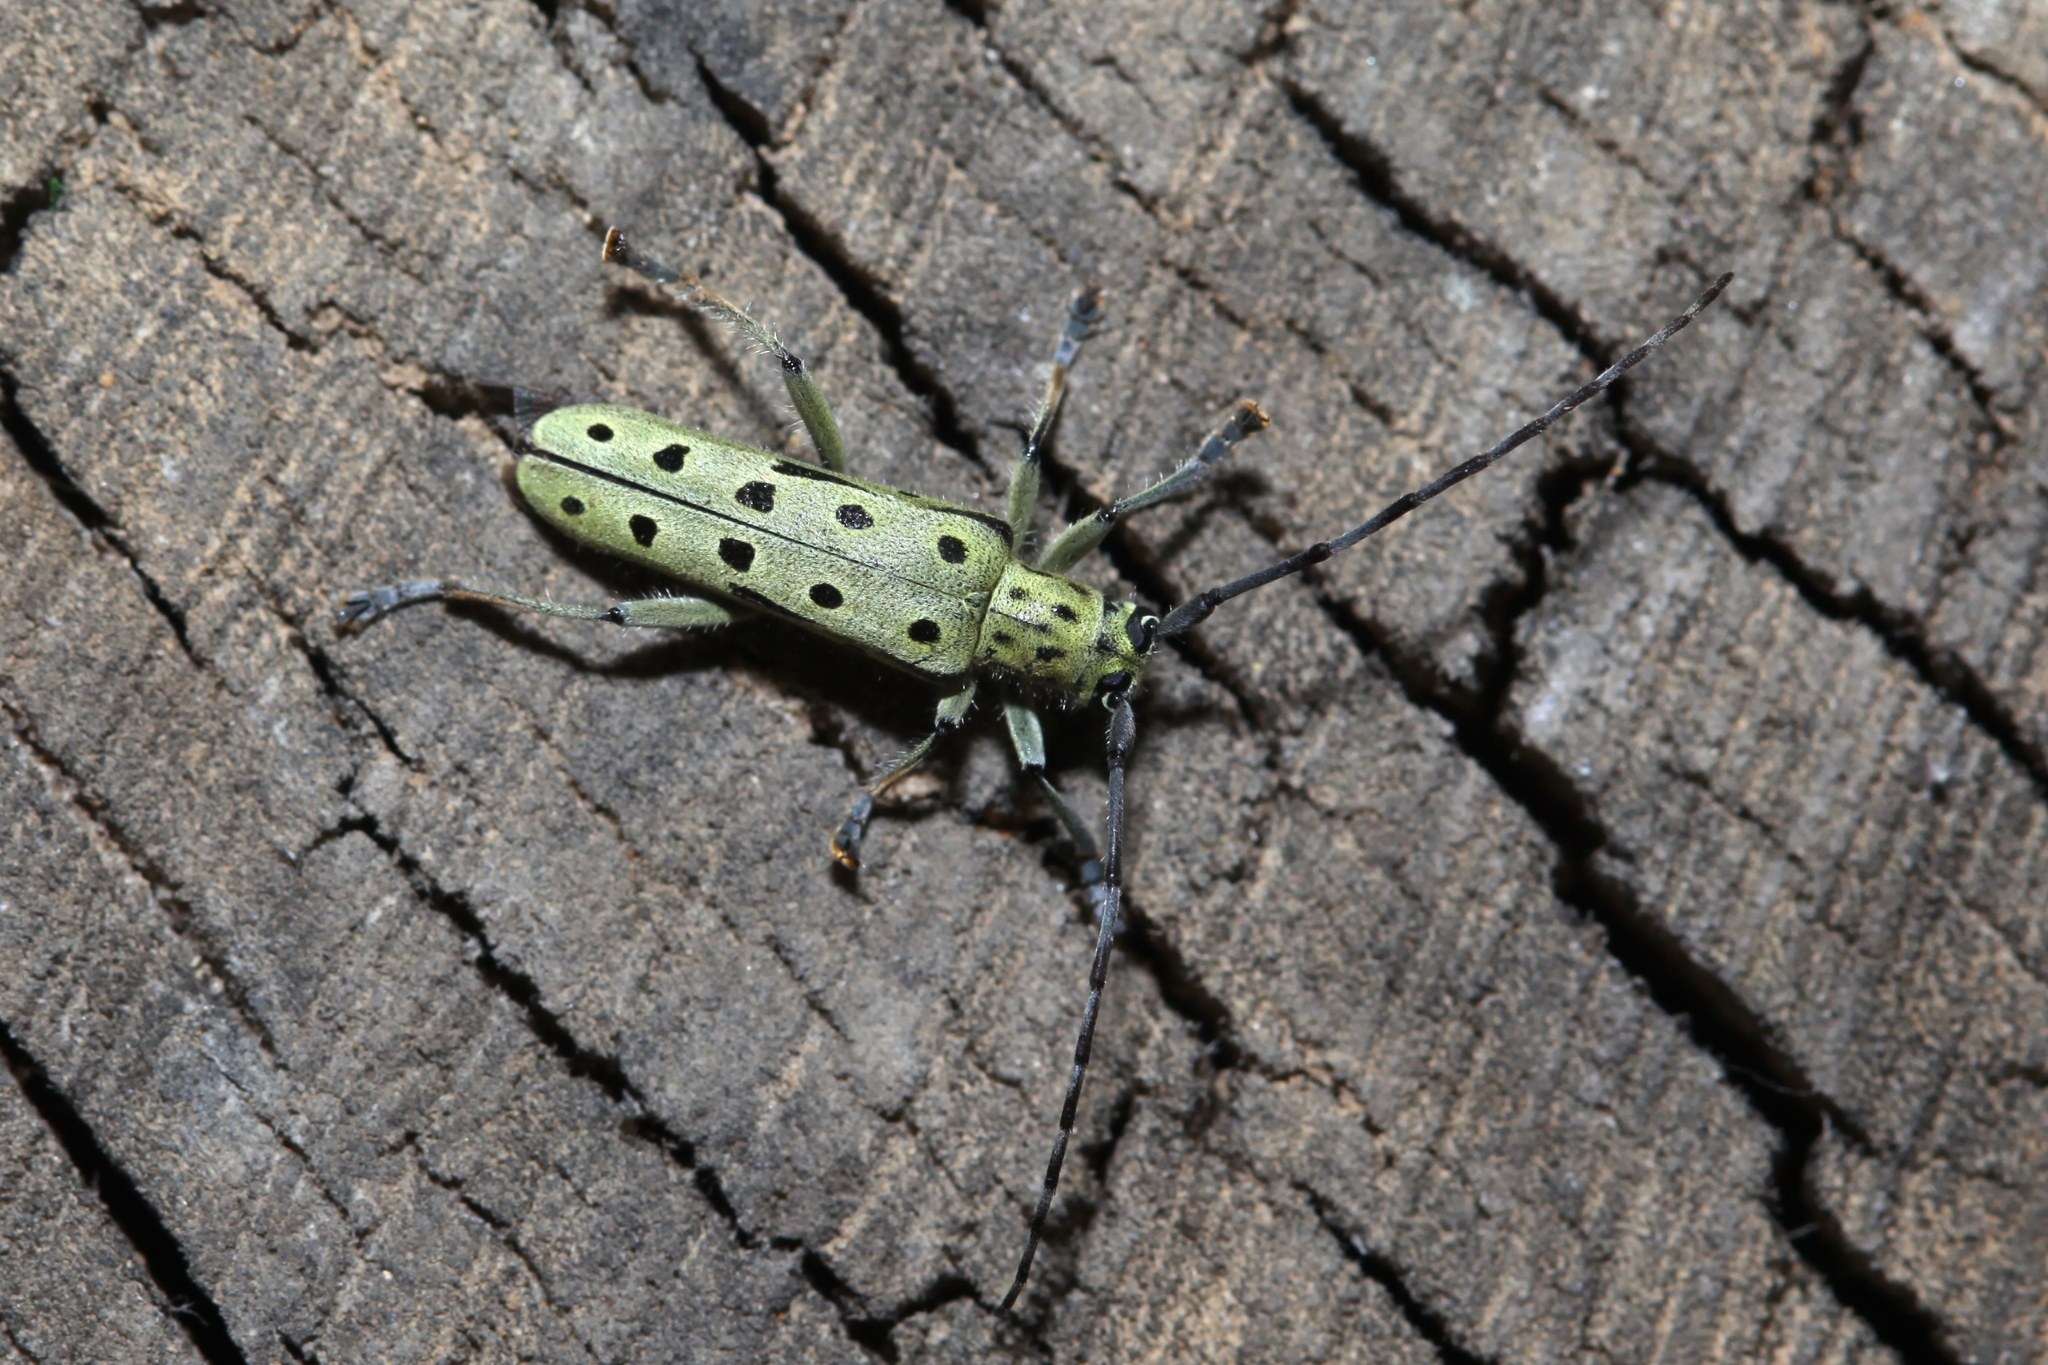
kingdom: Animalia
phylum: Arthropoda
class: Insecta
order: Coleoptera
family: Cerambycidae
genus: Saperda
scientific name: Saperda perforata
